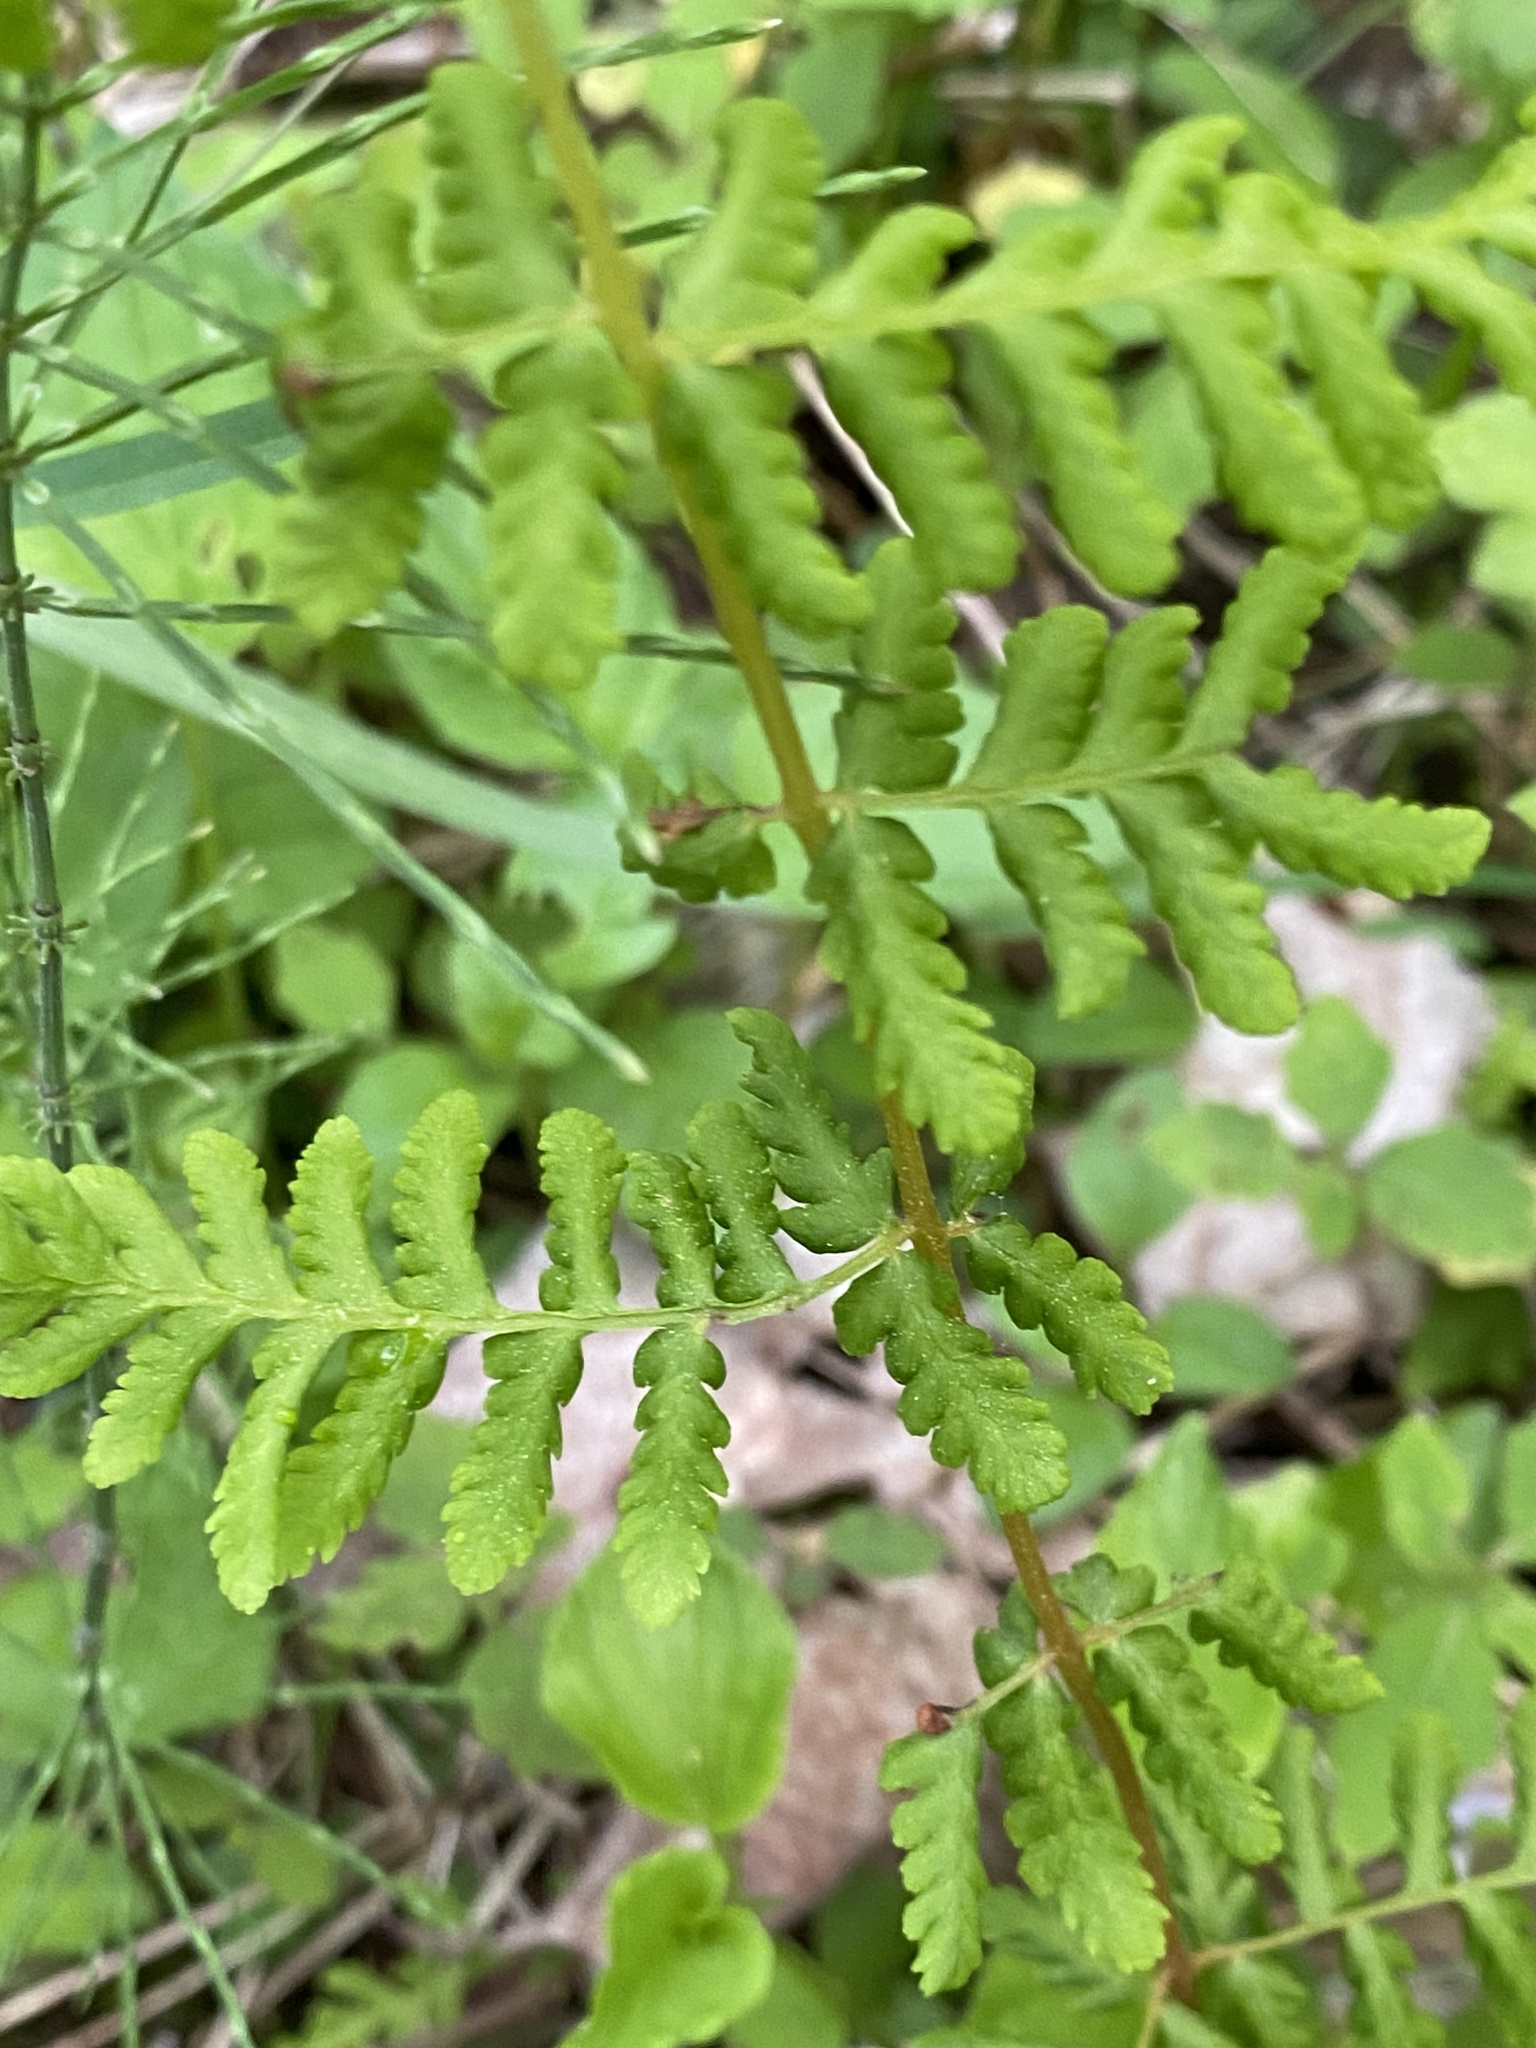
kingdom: Plantae
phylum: Tracheophyta
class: Polypodiopsida
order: Polypodiales
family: Cystopteridaceae
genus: Cystopteris
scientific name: Cystopteris bulbifera
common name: Bulblet bladder fern
